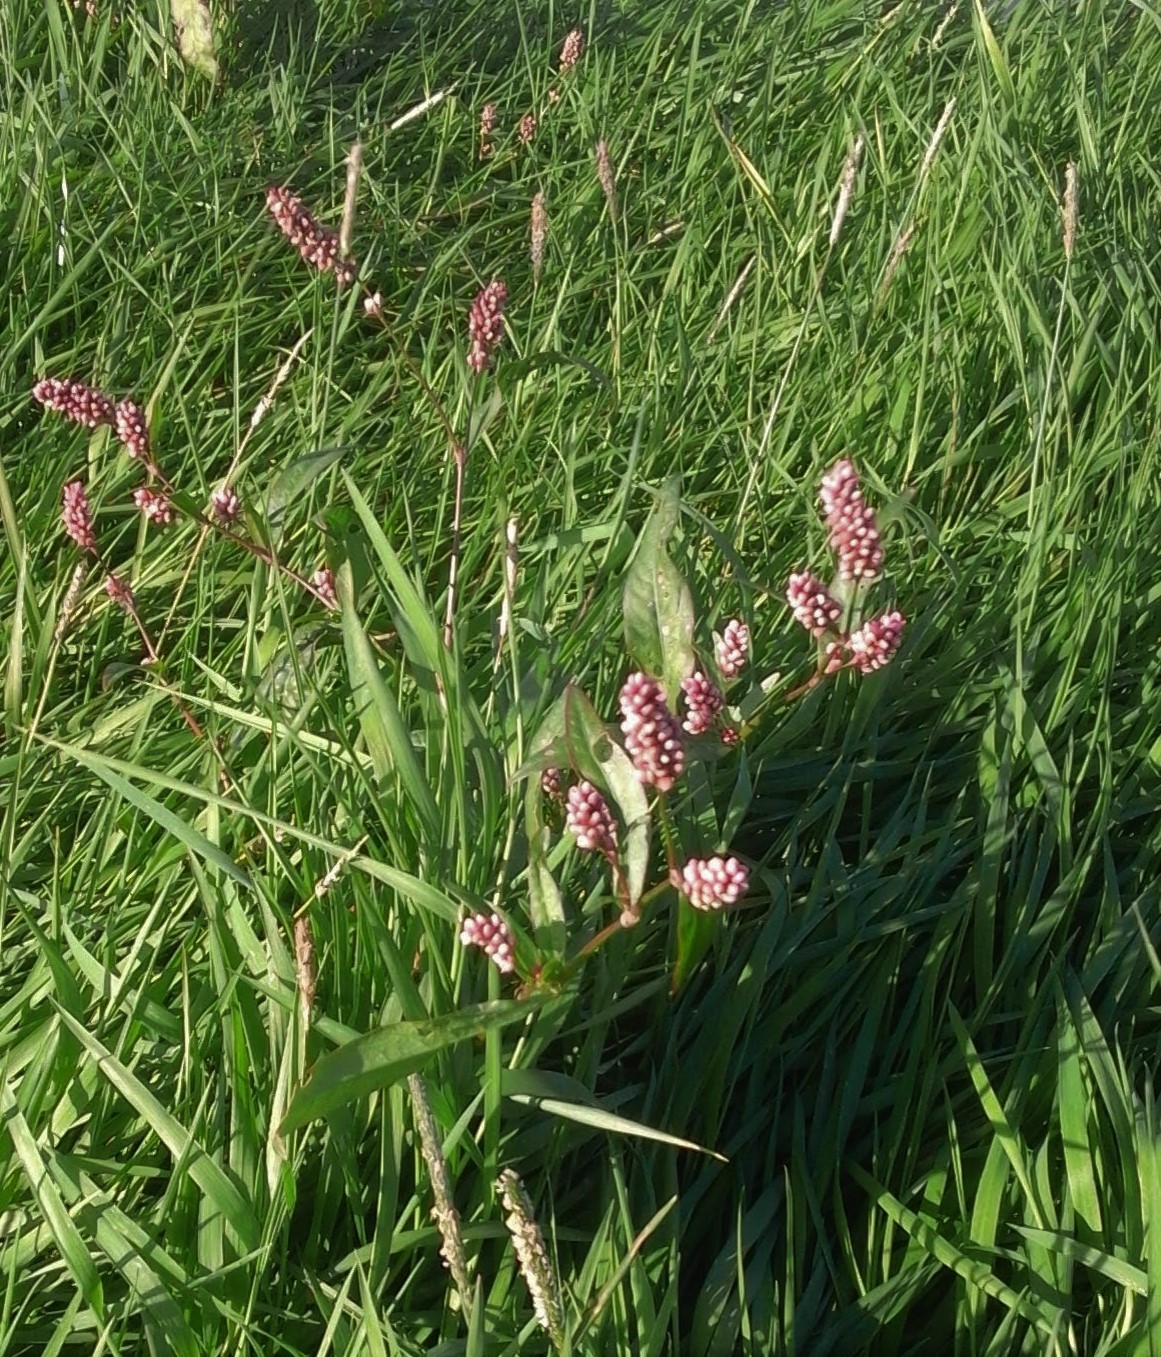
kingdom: Plantae
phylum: Tracheophyta
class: Magnoliopsida
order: Caryophyllales
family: Polygonaceae
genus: Persicaria
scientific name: Persicaria maculosa
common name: Redshank
